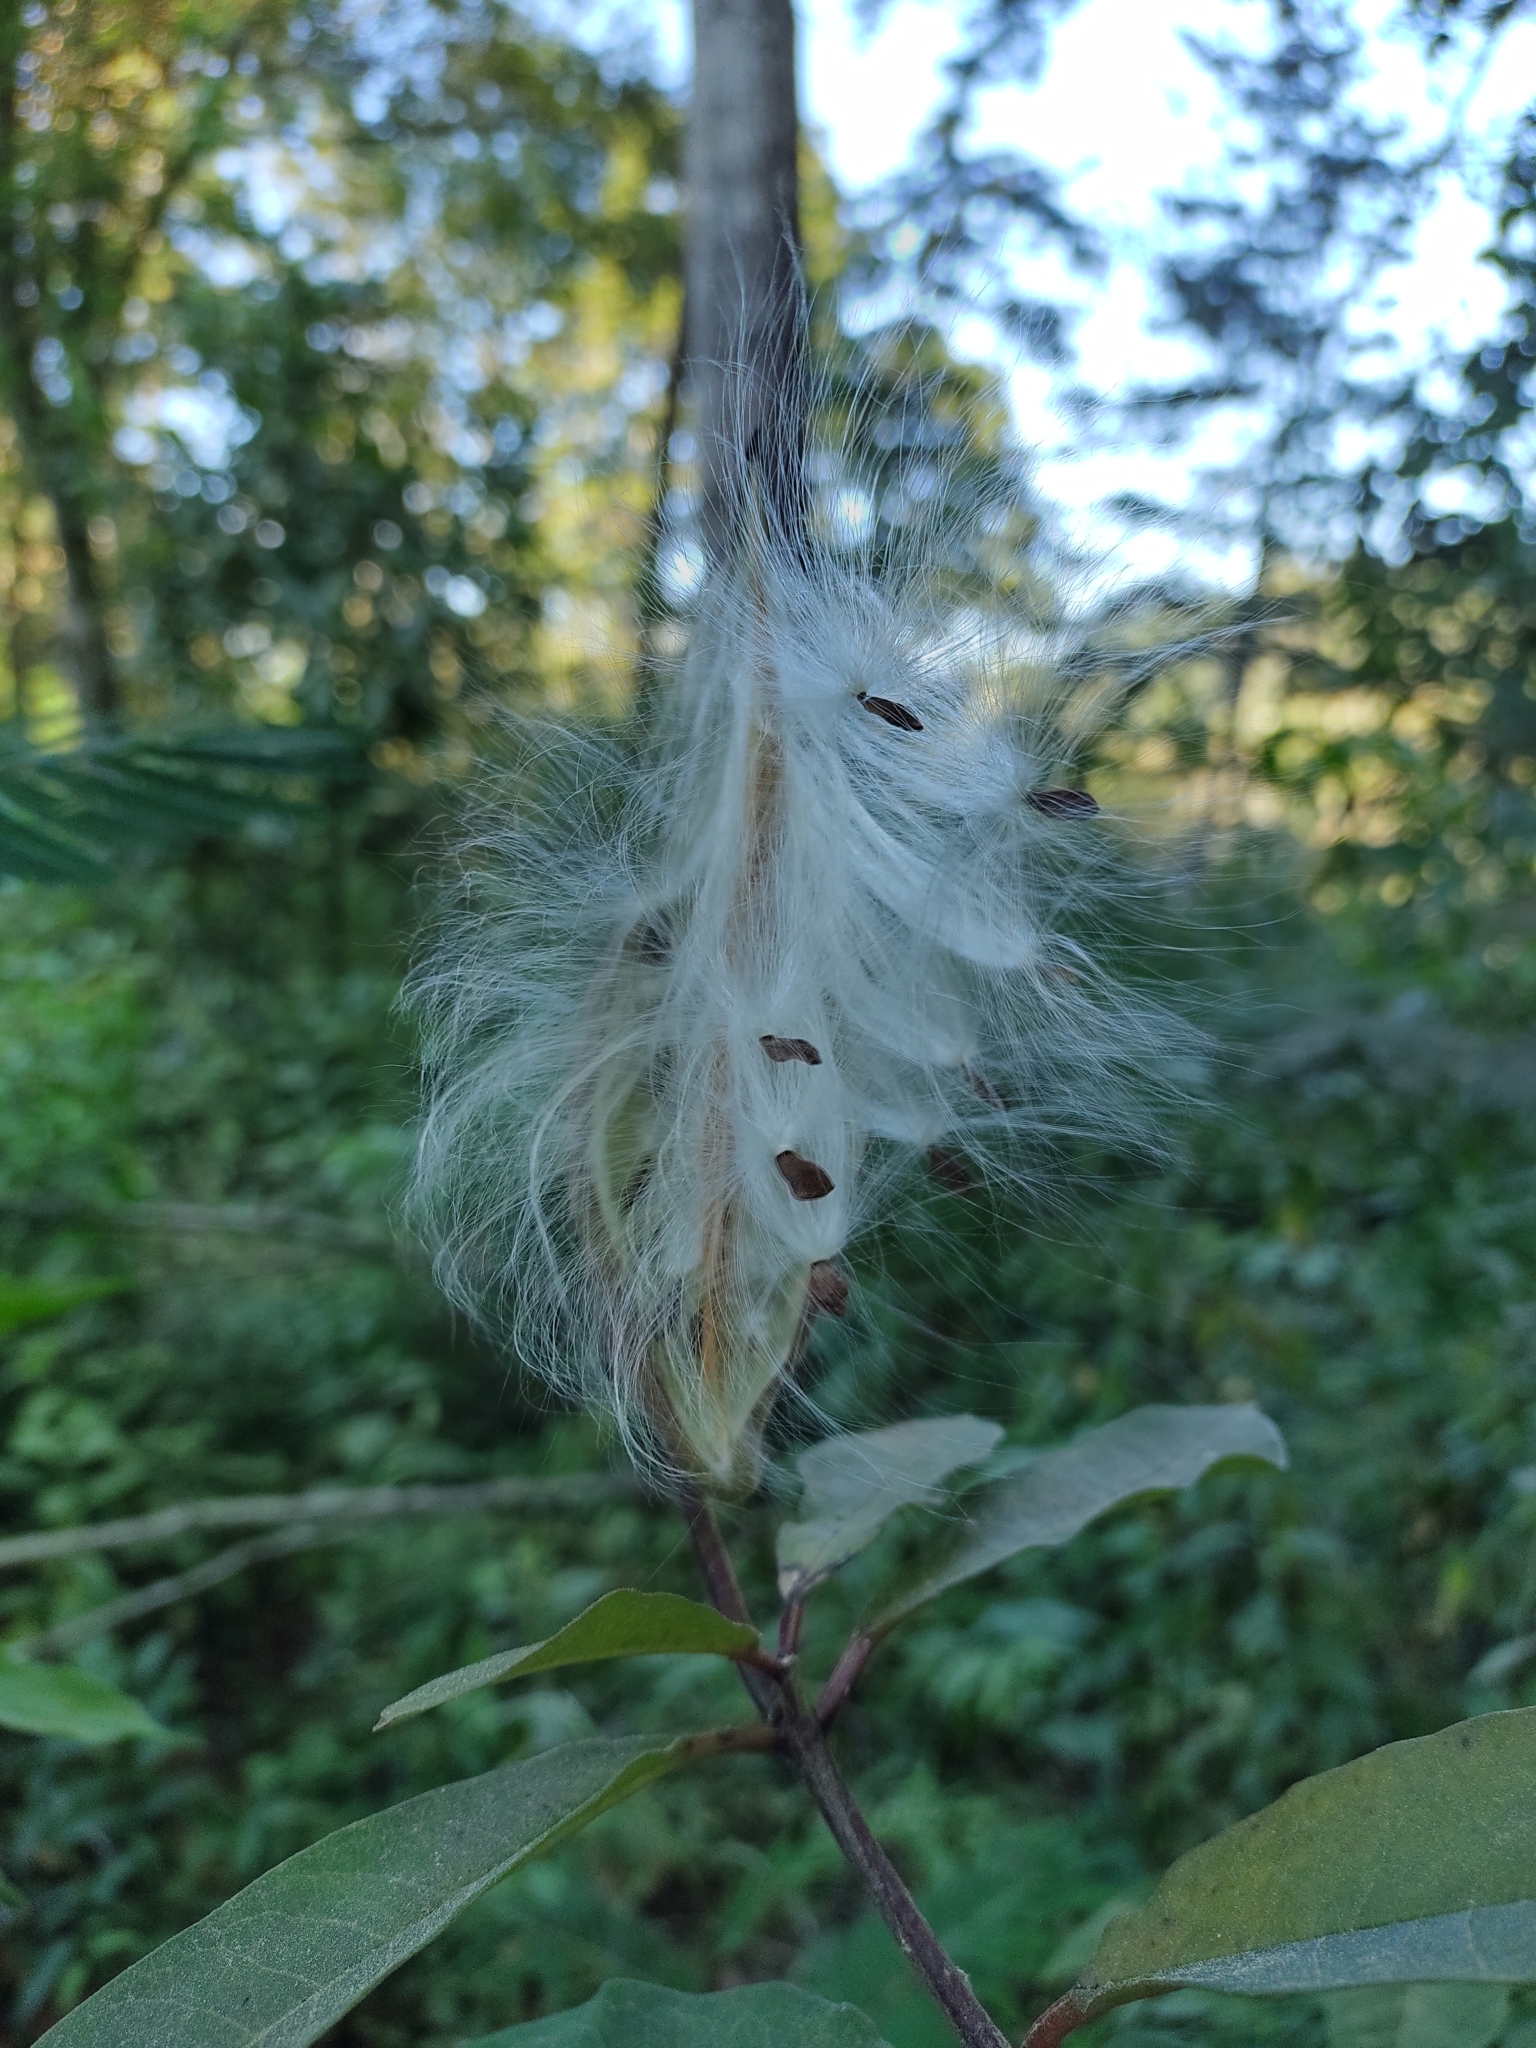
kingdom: Plantae
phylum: Tracheophyta
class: Magnoliopsida
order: Gentianales
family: Apocynaceae
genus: Asclepias
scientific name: Asclepias similis
